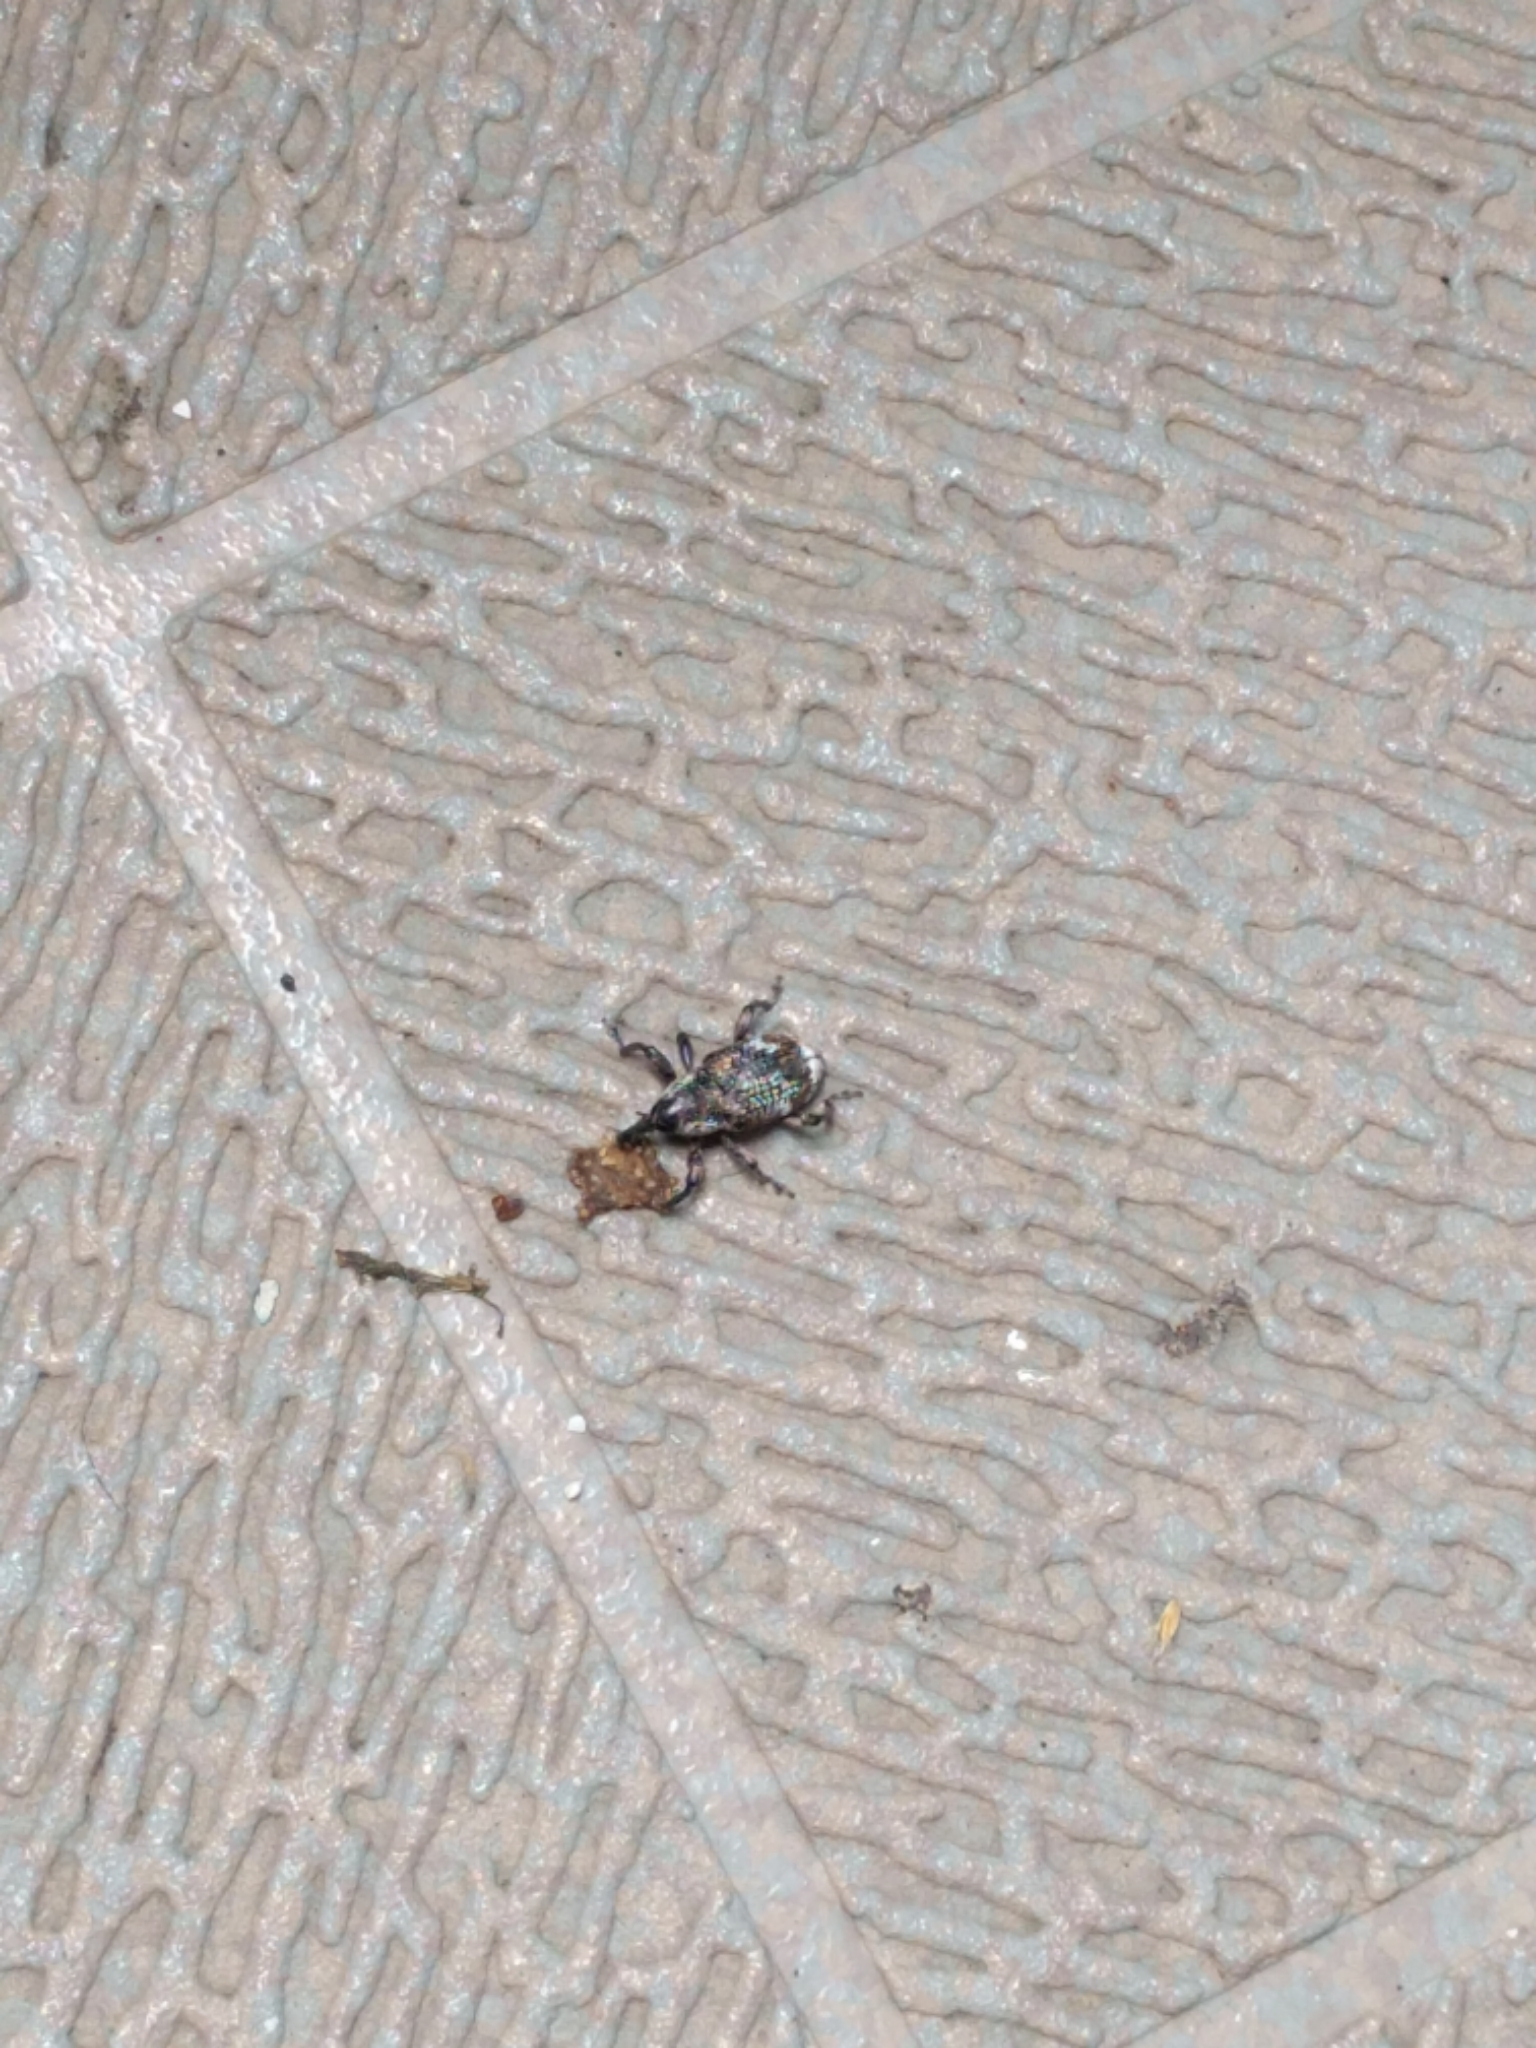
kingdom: Animalia
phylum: Arthropoda
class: Insecta
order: Coleoptera
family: Curculionidae
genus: Aclees
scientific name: Aclees hirayamai
